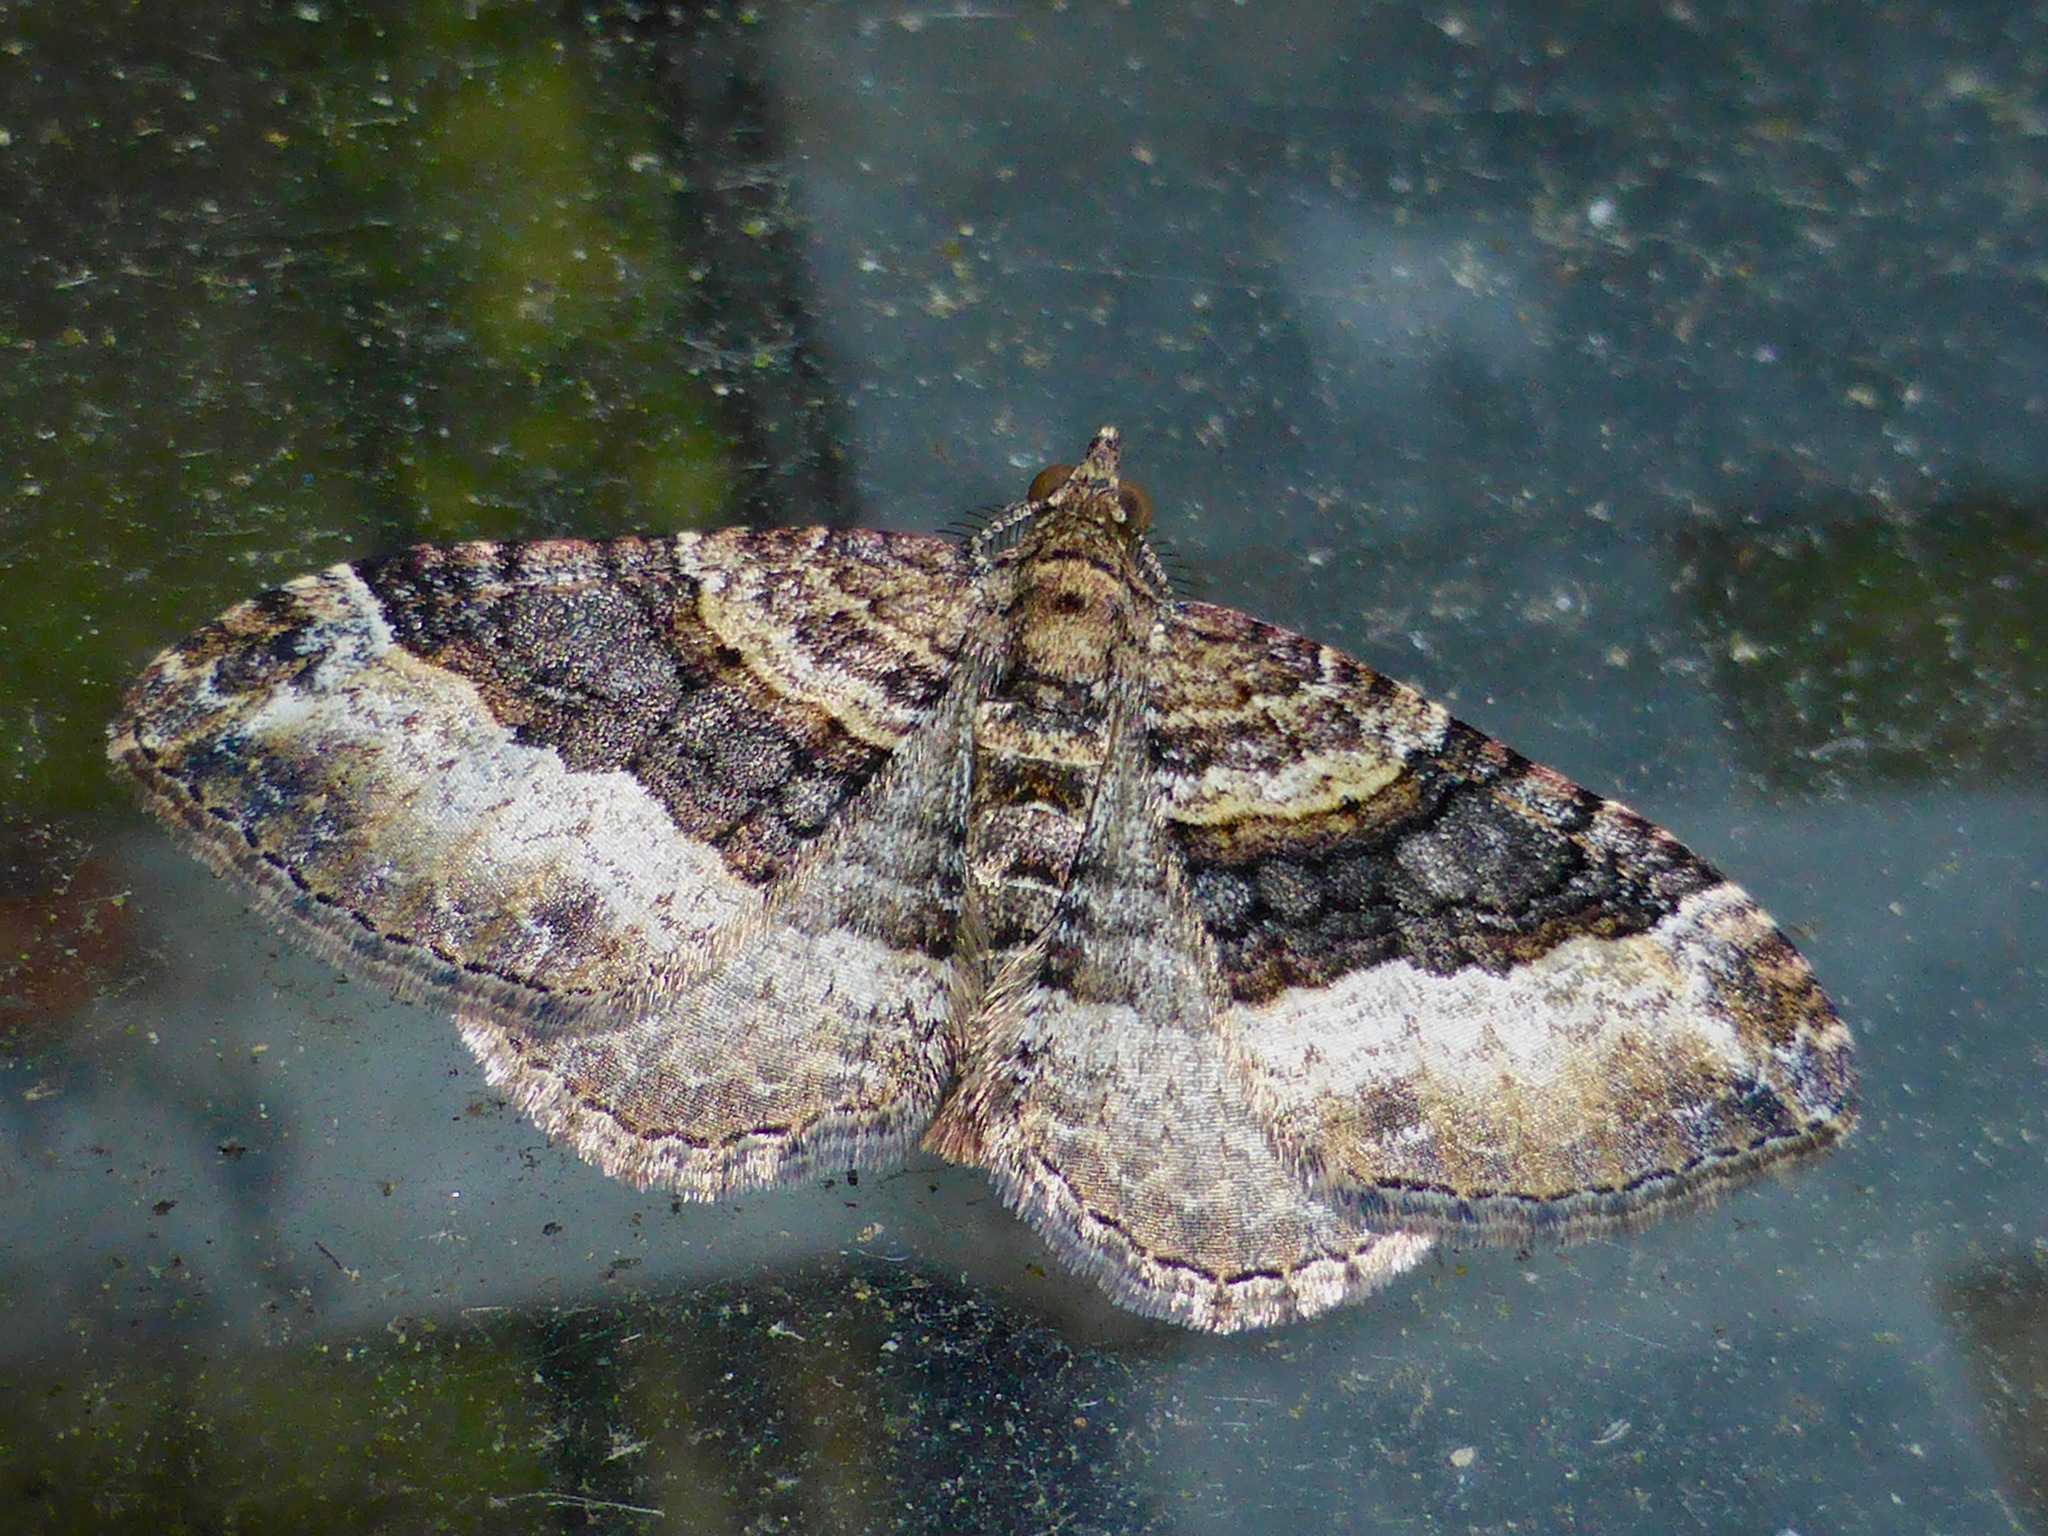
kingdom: Animalia
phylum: Arthropoda
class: Insecta
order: Lepidoptera
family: Geometridae
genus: Epyaxa
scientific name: Epyaxa lucidata
